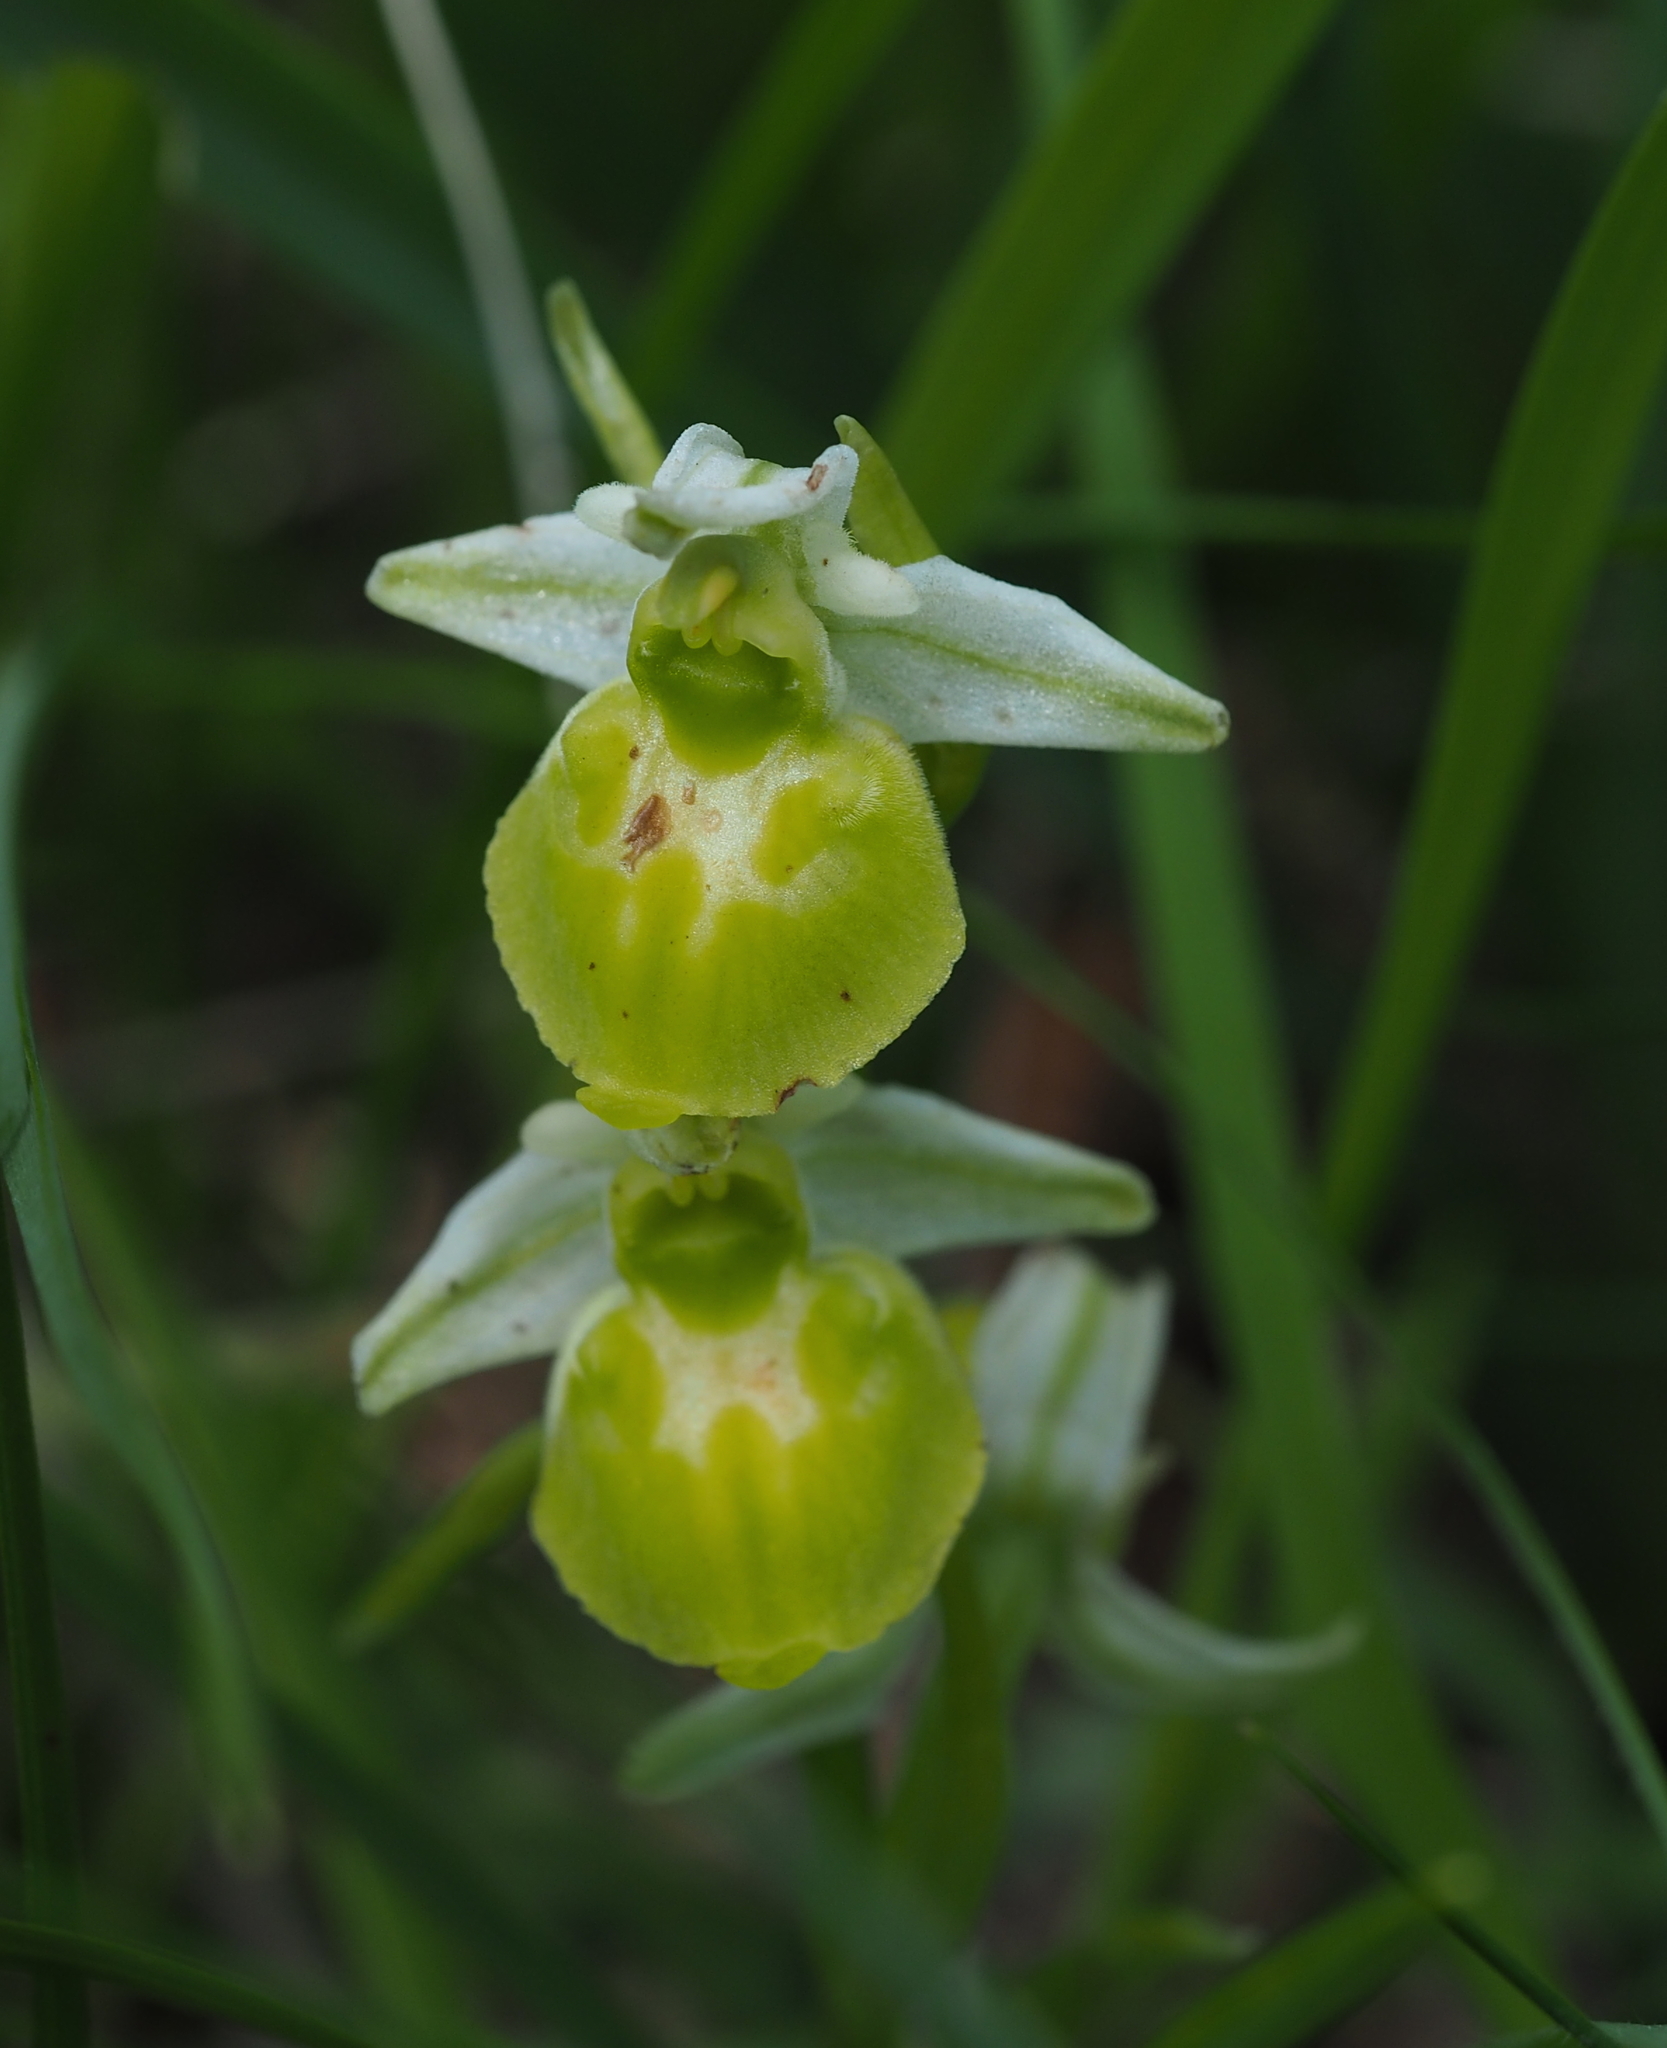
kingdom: Plantae
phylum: Tracheophyta
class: Liliopsida
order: Asparagales
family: Orchidaceae
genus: Ophrys
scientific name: Ophrys holosericea
